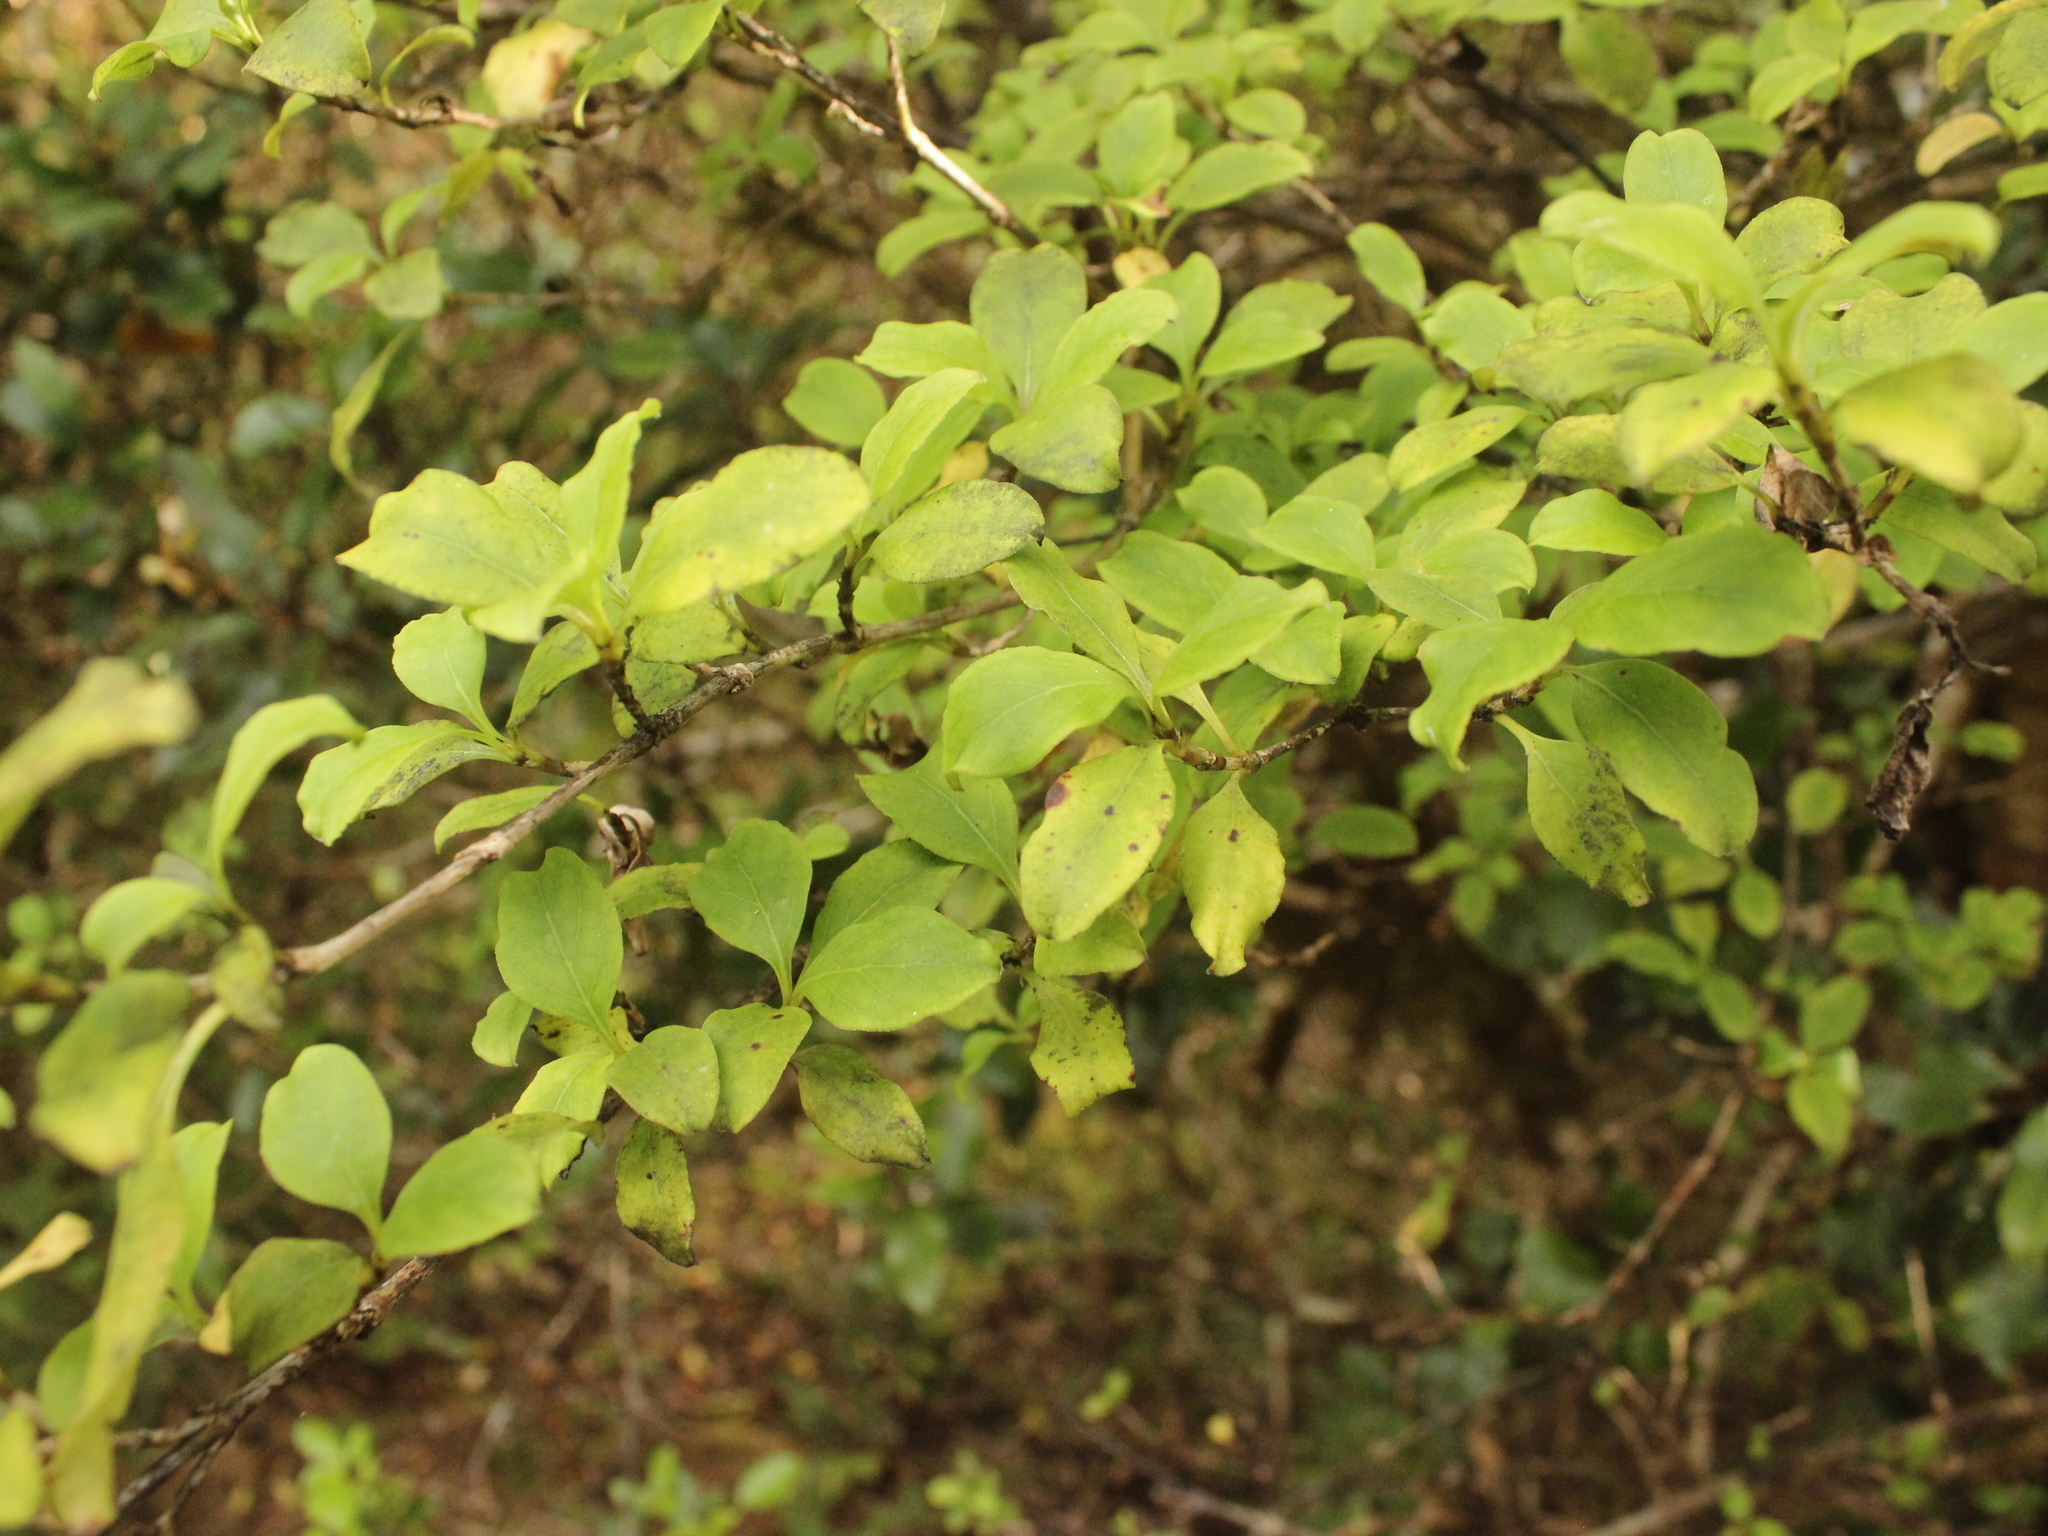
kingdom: Plantae
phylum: Tracheophyta
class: Magnoliopsida
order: Gentianales
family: Rubiaceae
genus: Coprosma
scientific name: Coprosma foetidissima
